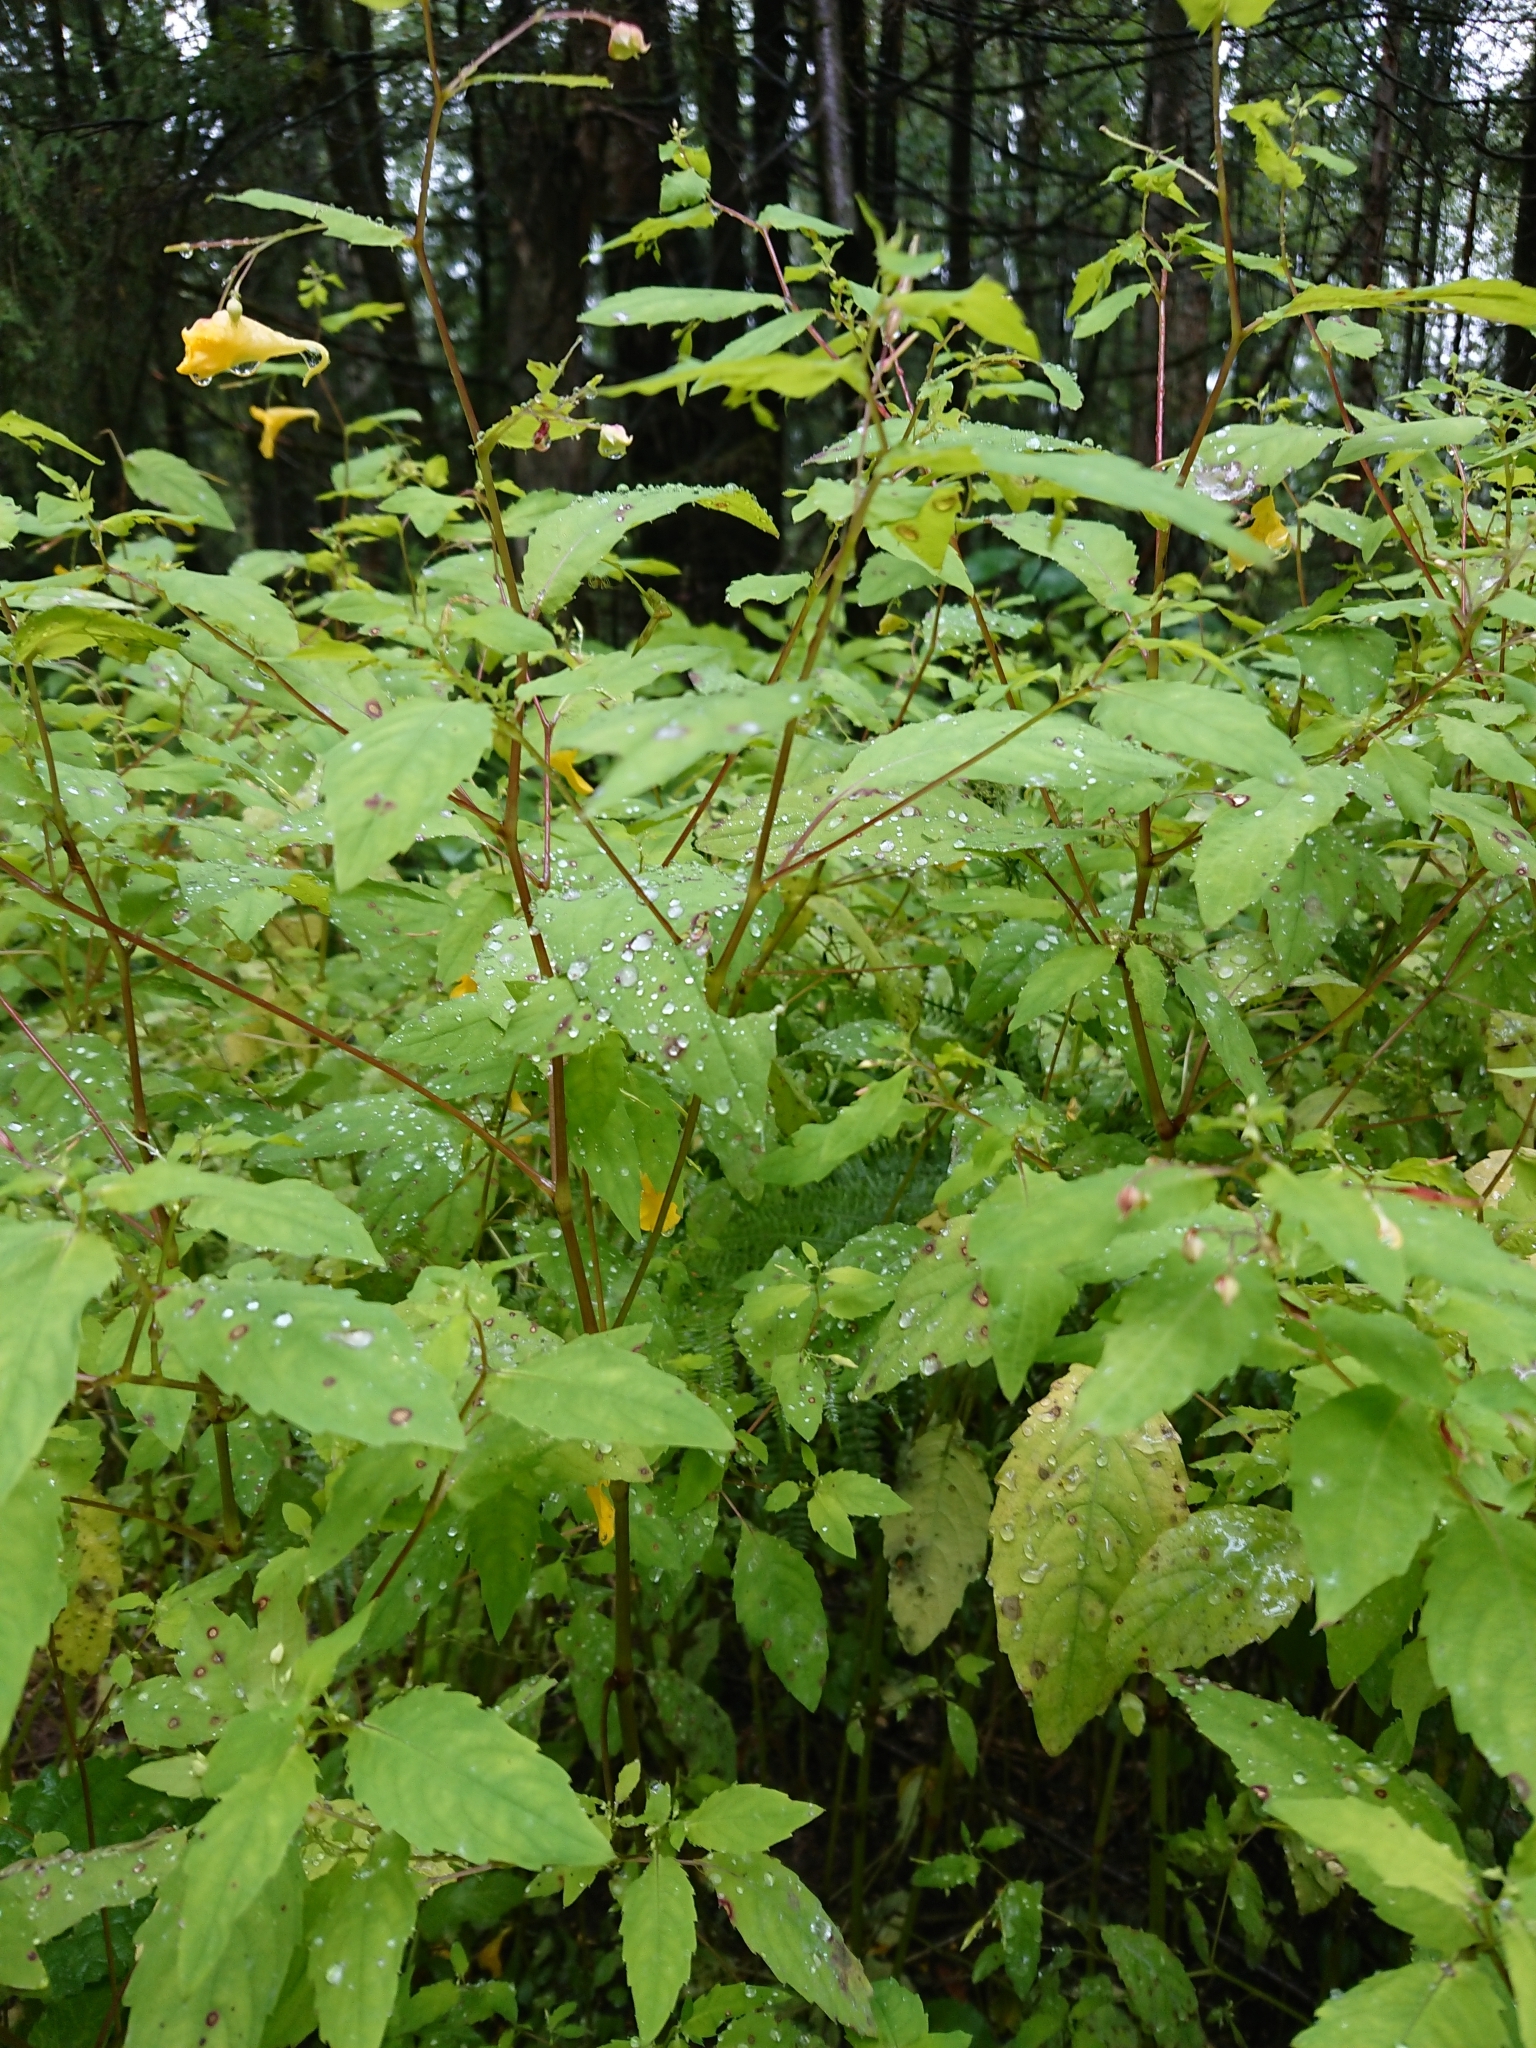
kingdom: Plantae
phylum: Tracheophyta
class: Magnoliopsida
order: Ericales
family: Balsaminaceae
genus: Impatiens
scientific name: Impatiens noli-tangere
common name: Touch-me-not balsam
